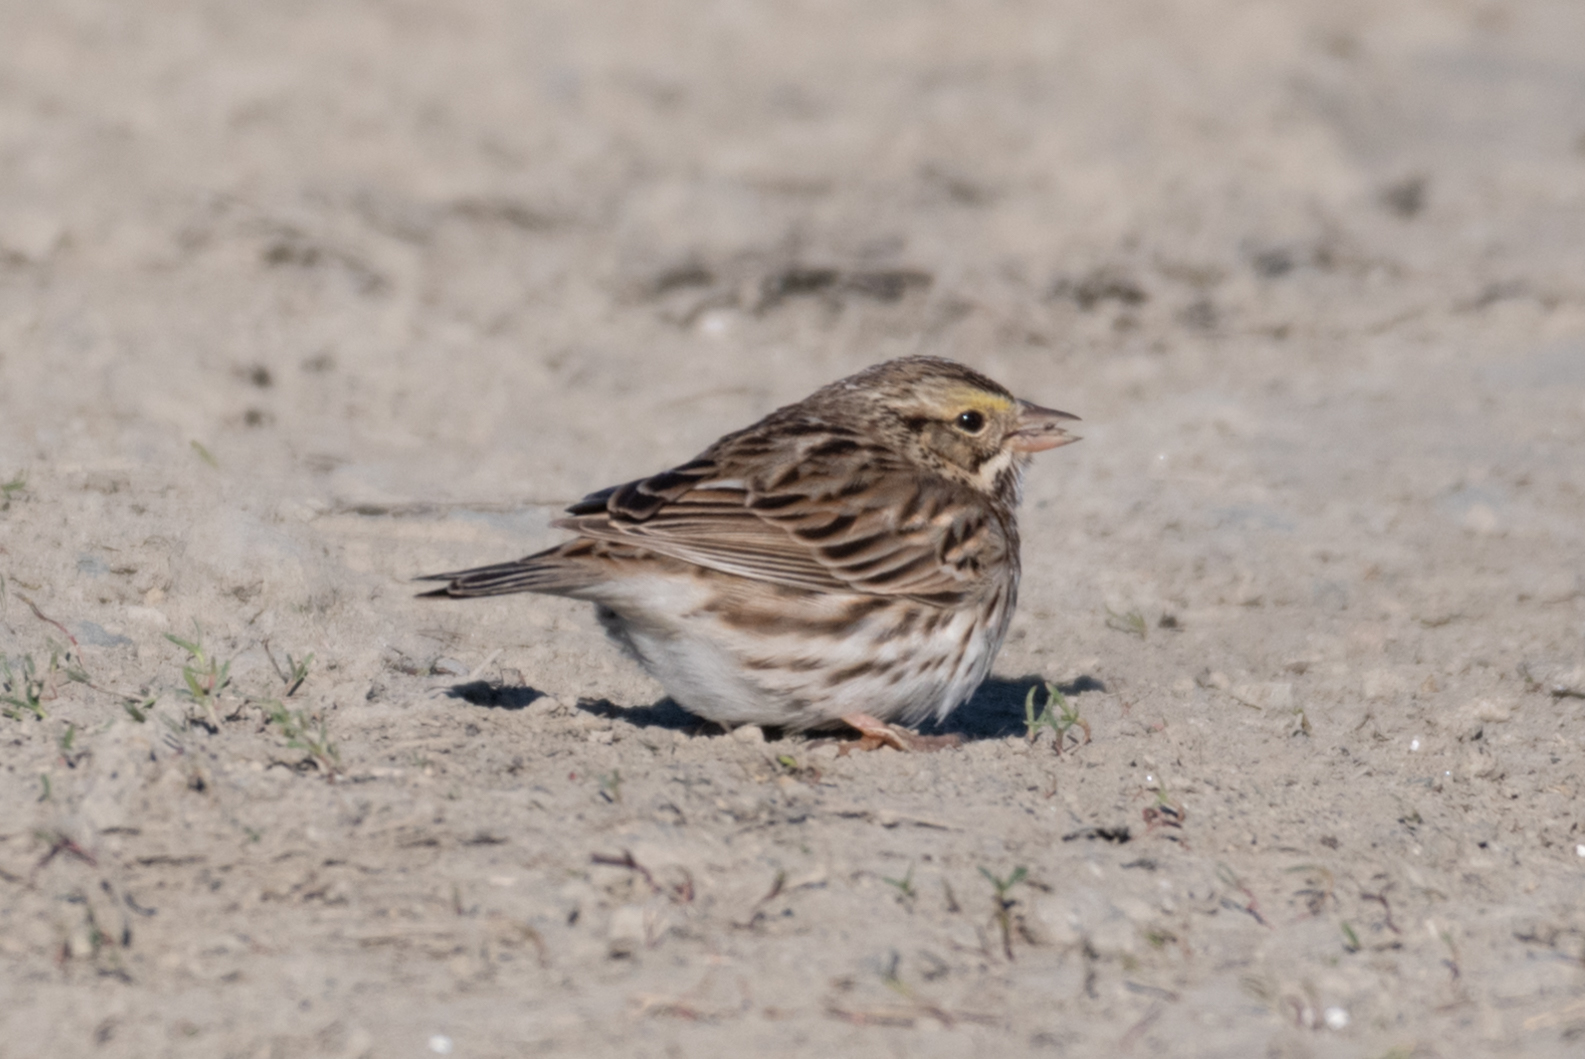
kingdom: Animalia
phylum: Chordata
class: Aves
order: Passeriformes
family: Passerellidae
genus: Passerculus
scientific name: Passerculus sandwichensis
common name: Savannah sparrow
